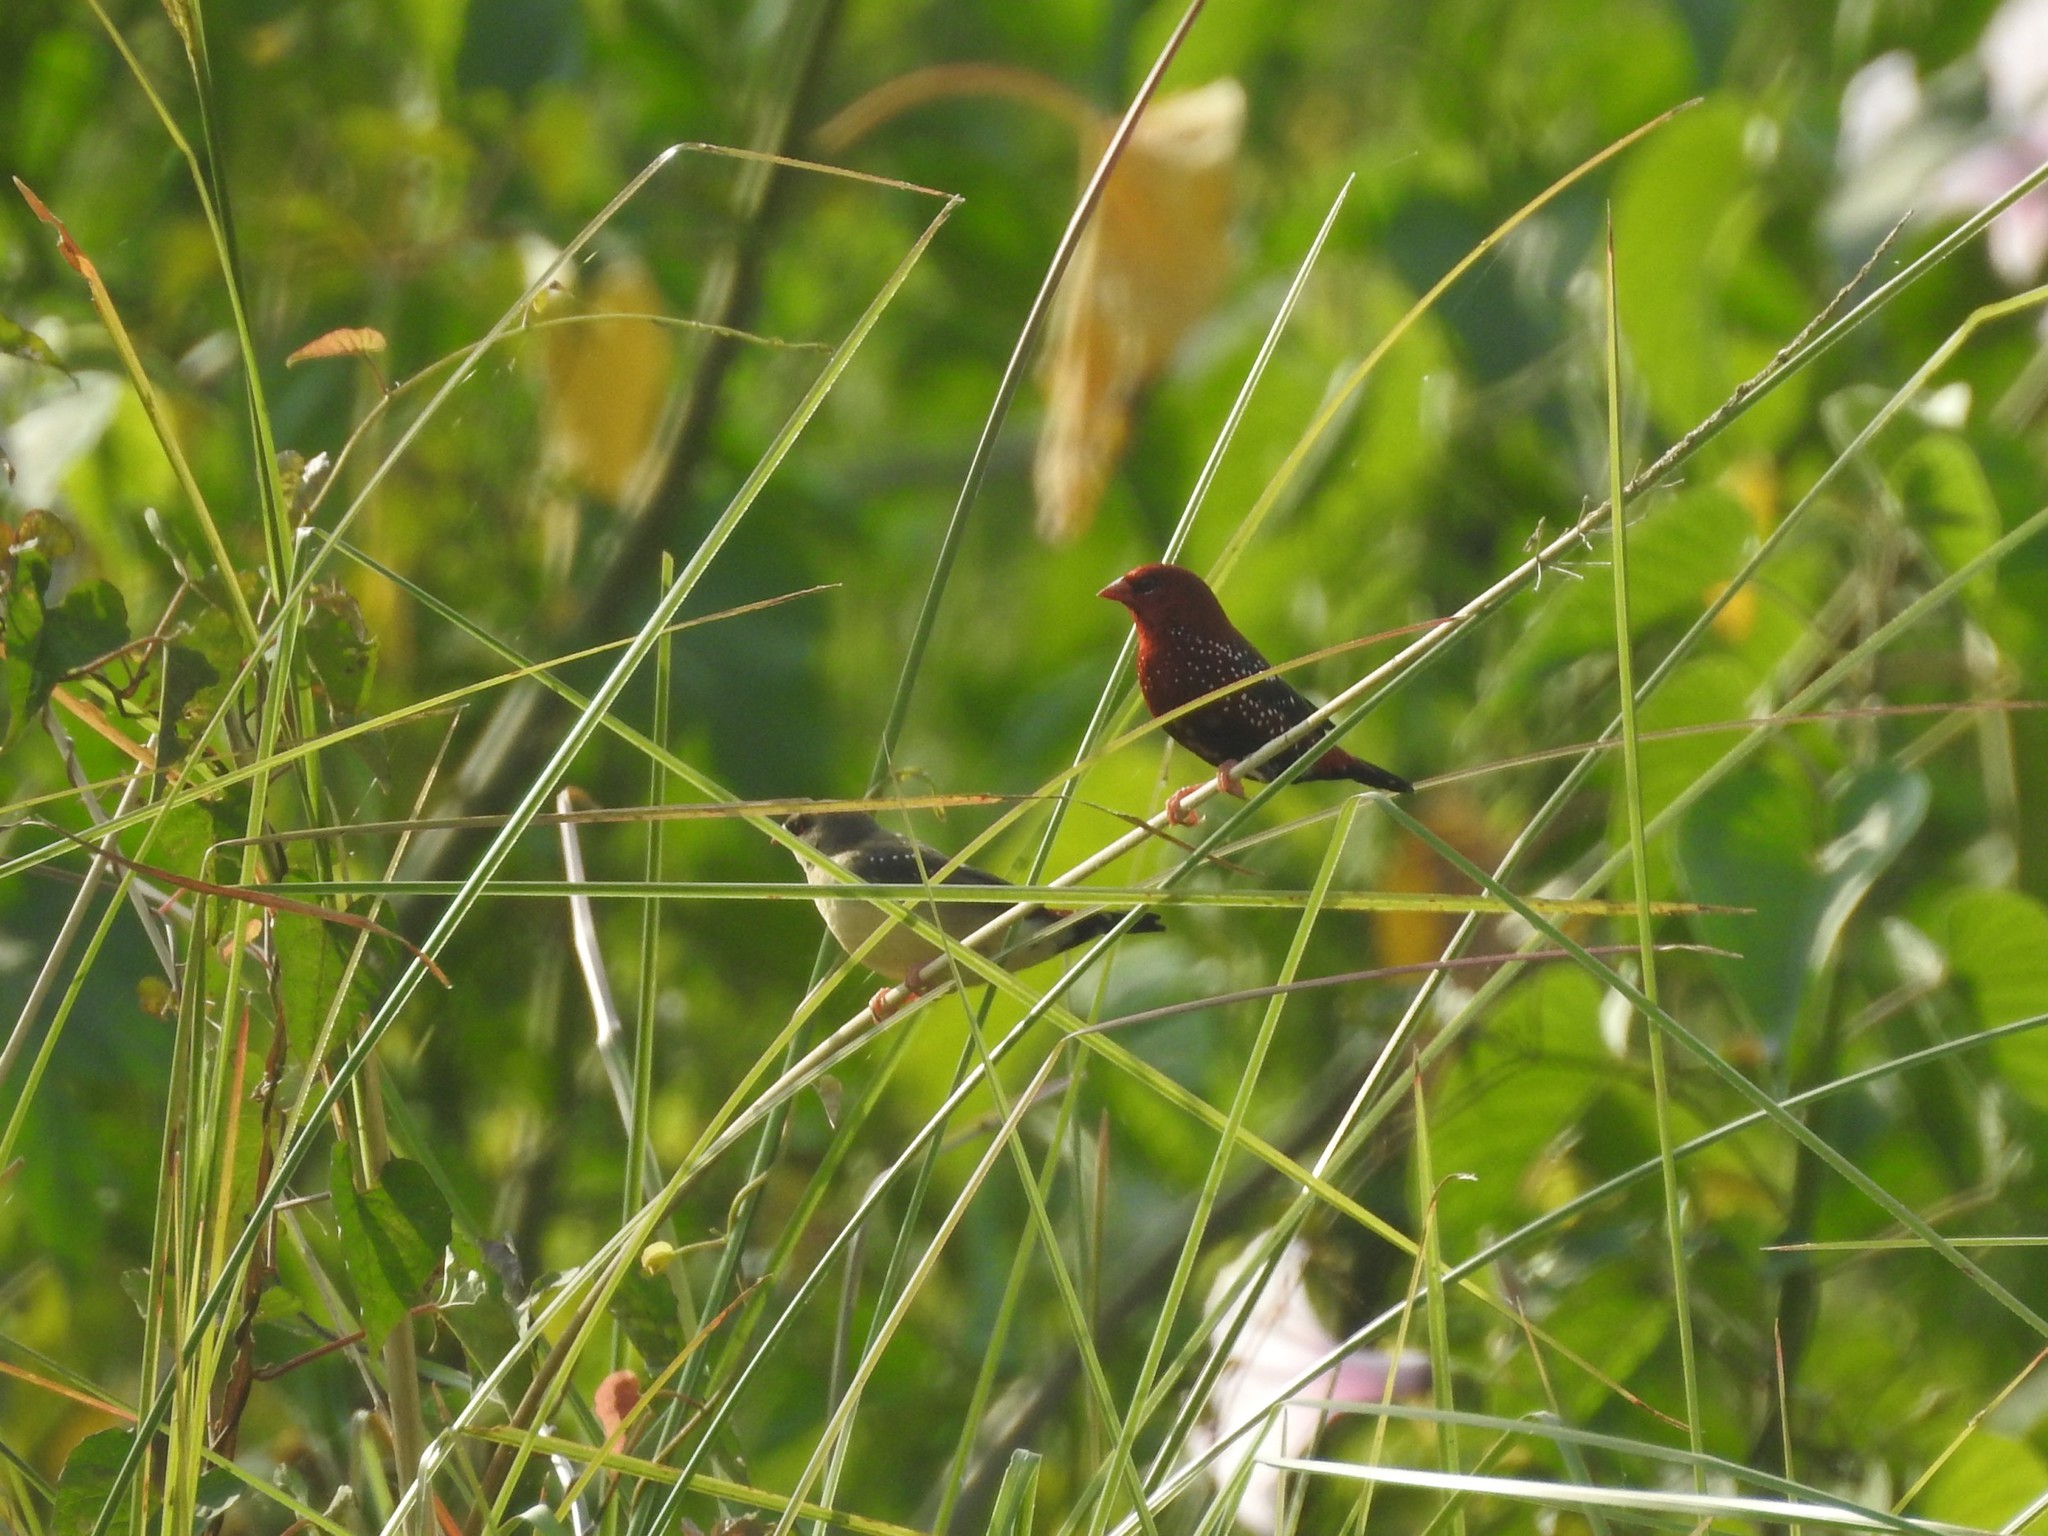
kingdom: Animalia
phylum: Chordata
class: Aves
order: Passeriformes
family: Estrildidae
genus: Amandava
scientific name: Amandava amandava
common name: Red avadavat
